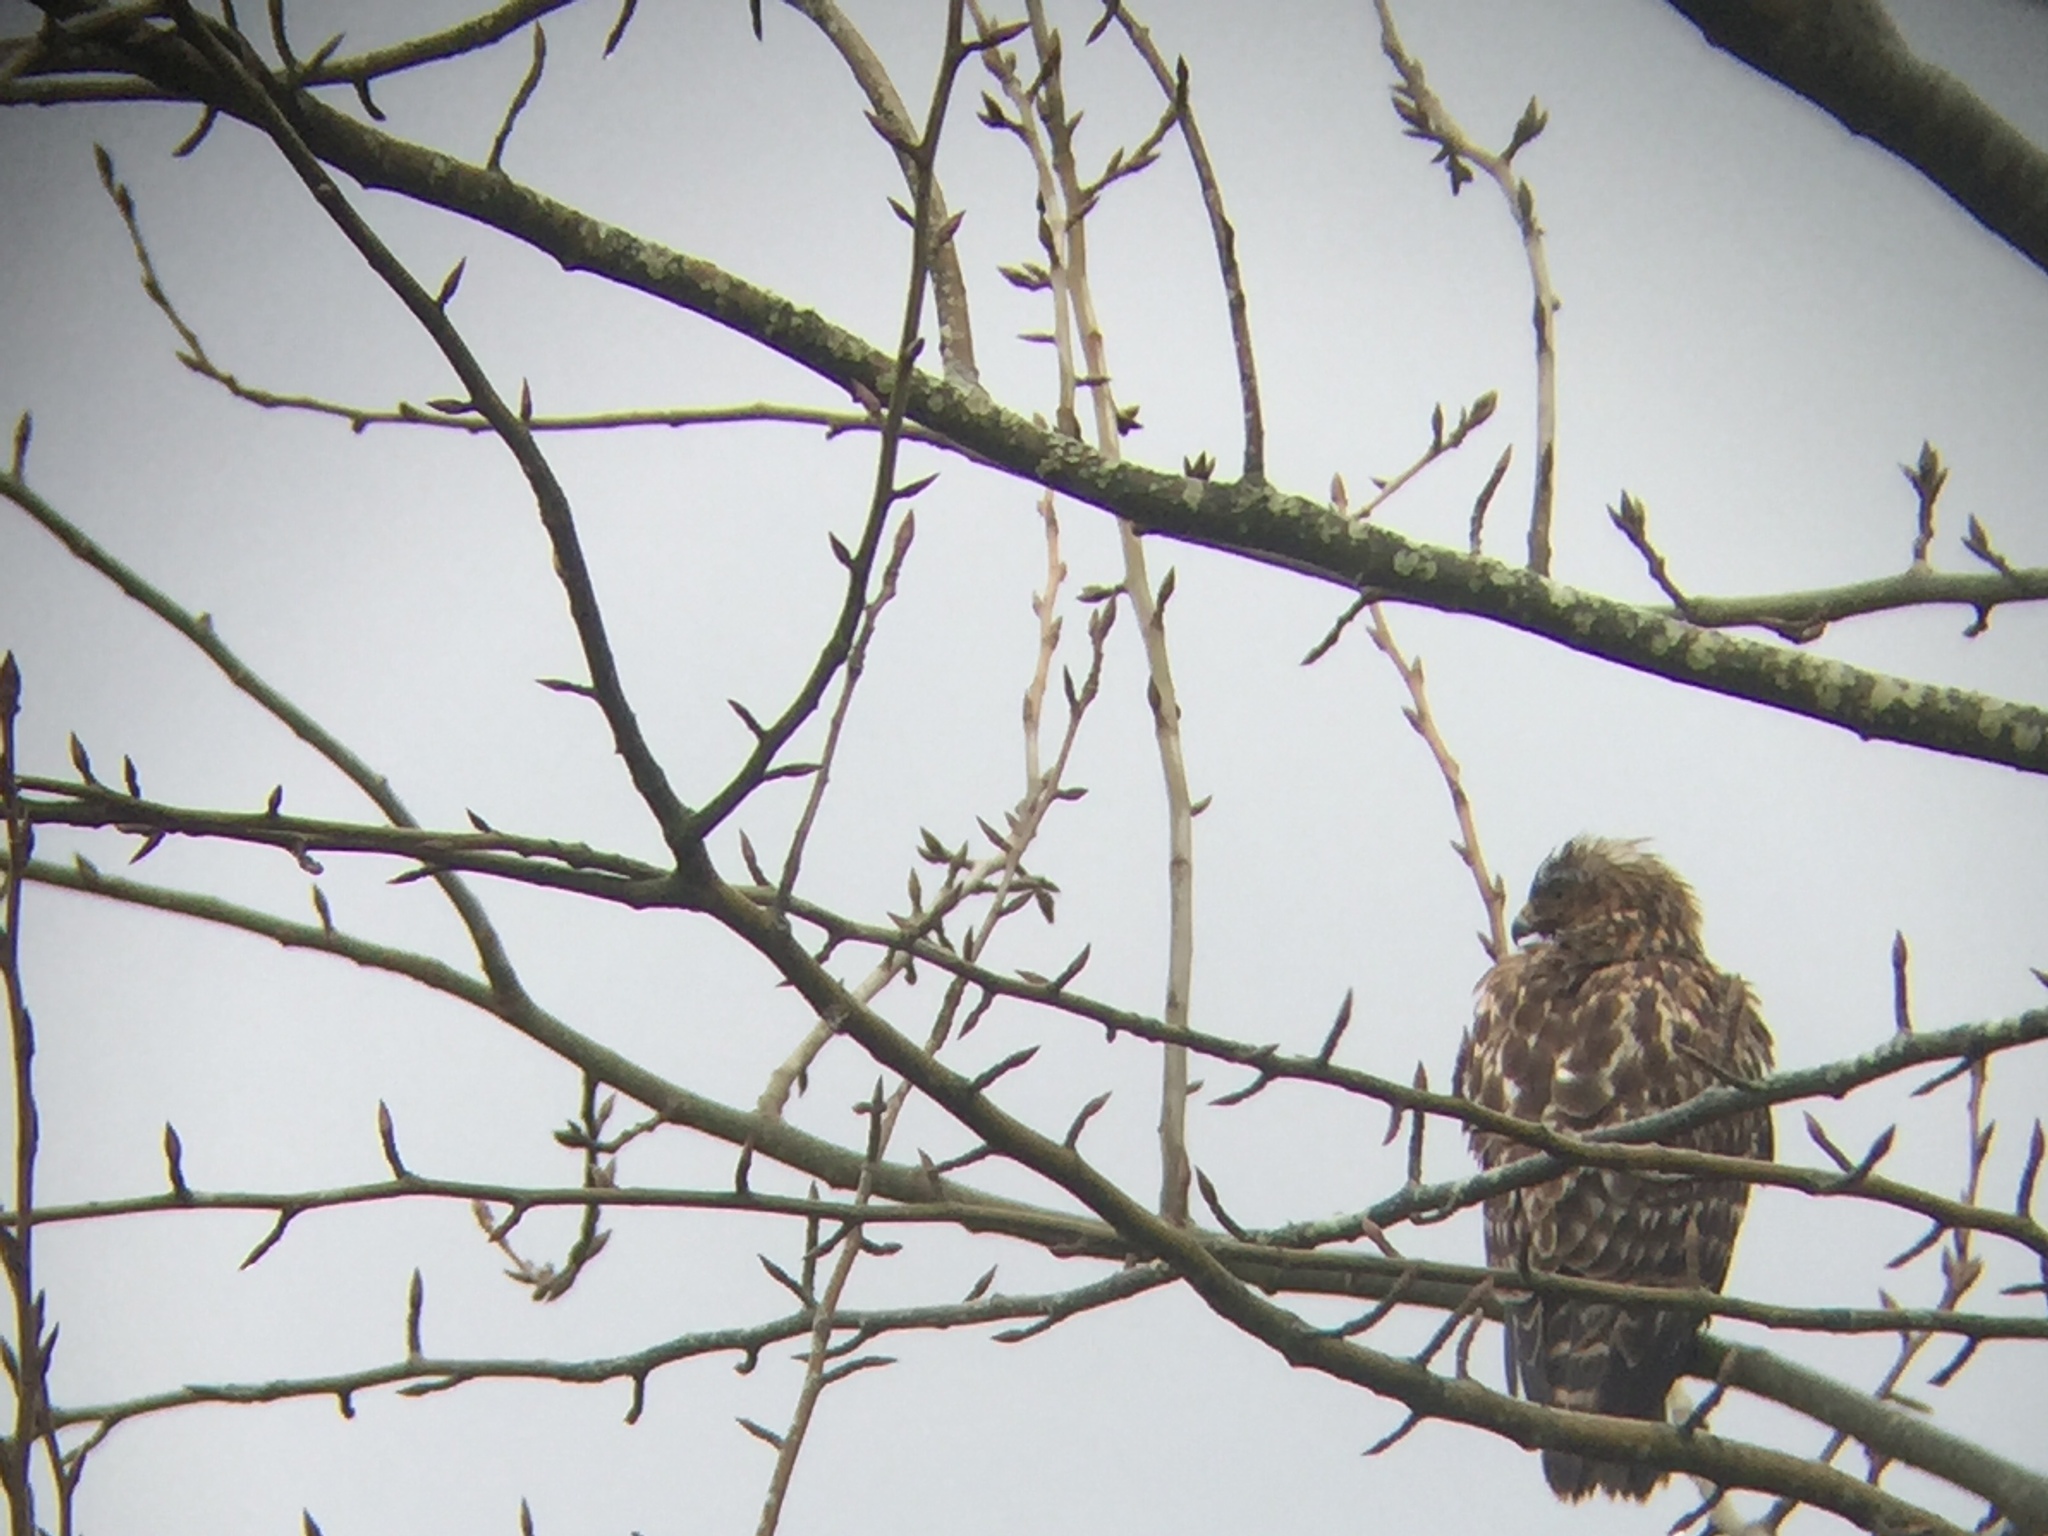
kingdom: Animalia
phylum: Chordata
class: Aves
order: Accipitriformes
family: Accipitridae
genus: Buteo
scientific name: Buteo lineatus
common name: Red-shouldered hawk
